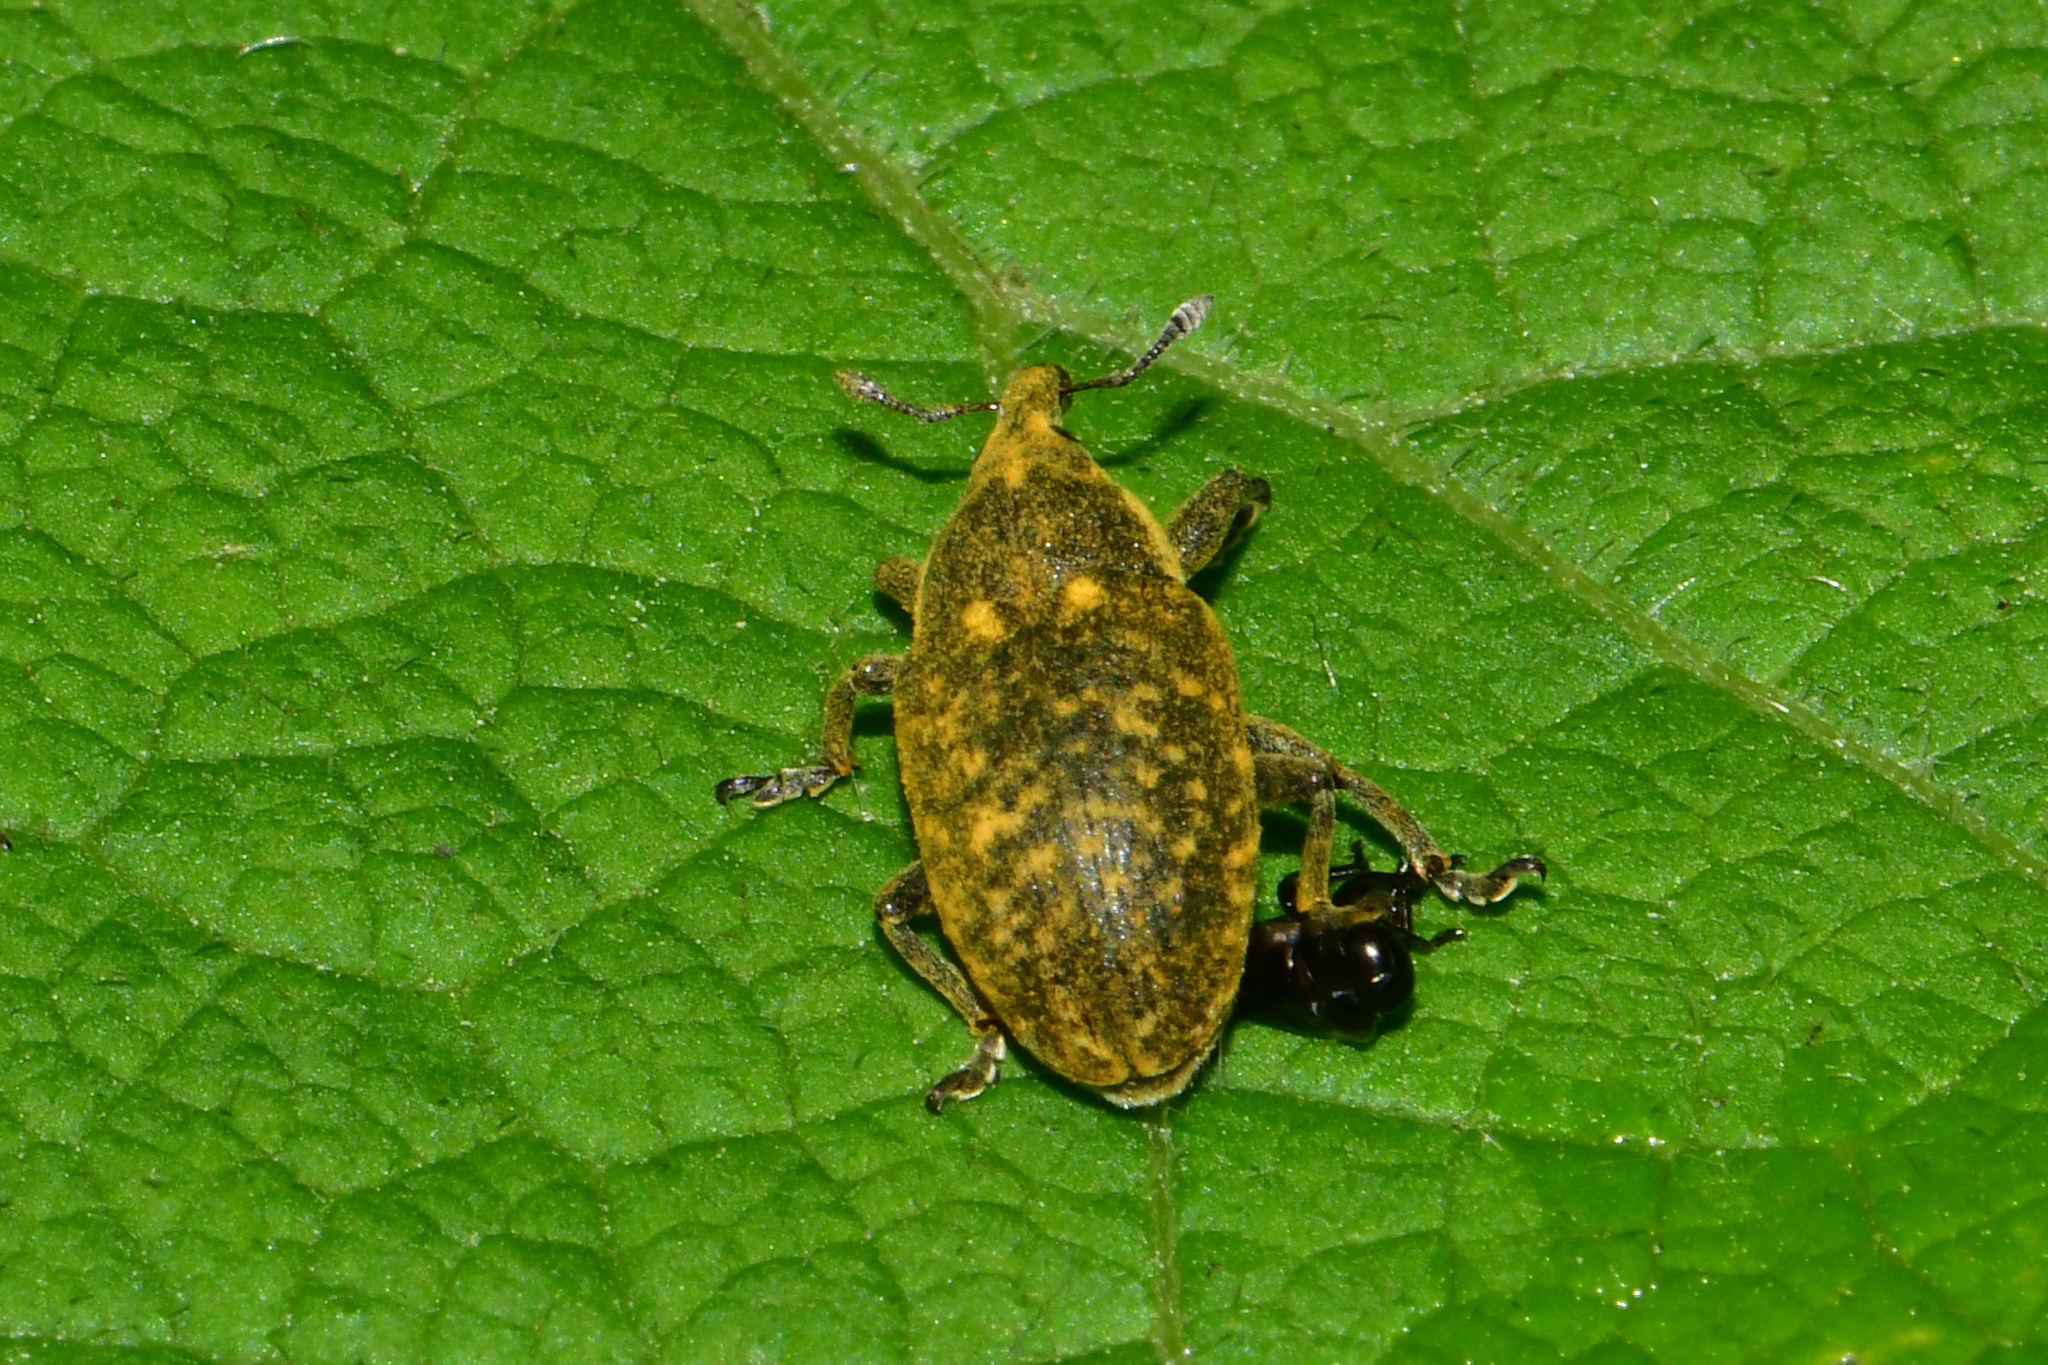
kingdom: Animalia
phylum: Arthropoda
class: Insecta
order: Coleoptera
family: Curculionidae
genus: Larinus
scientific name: Larinus sturnus
